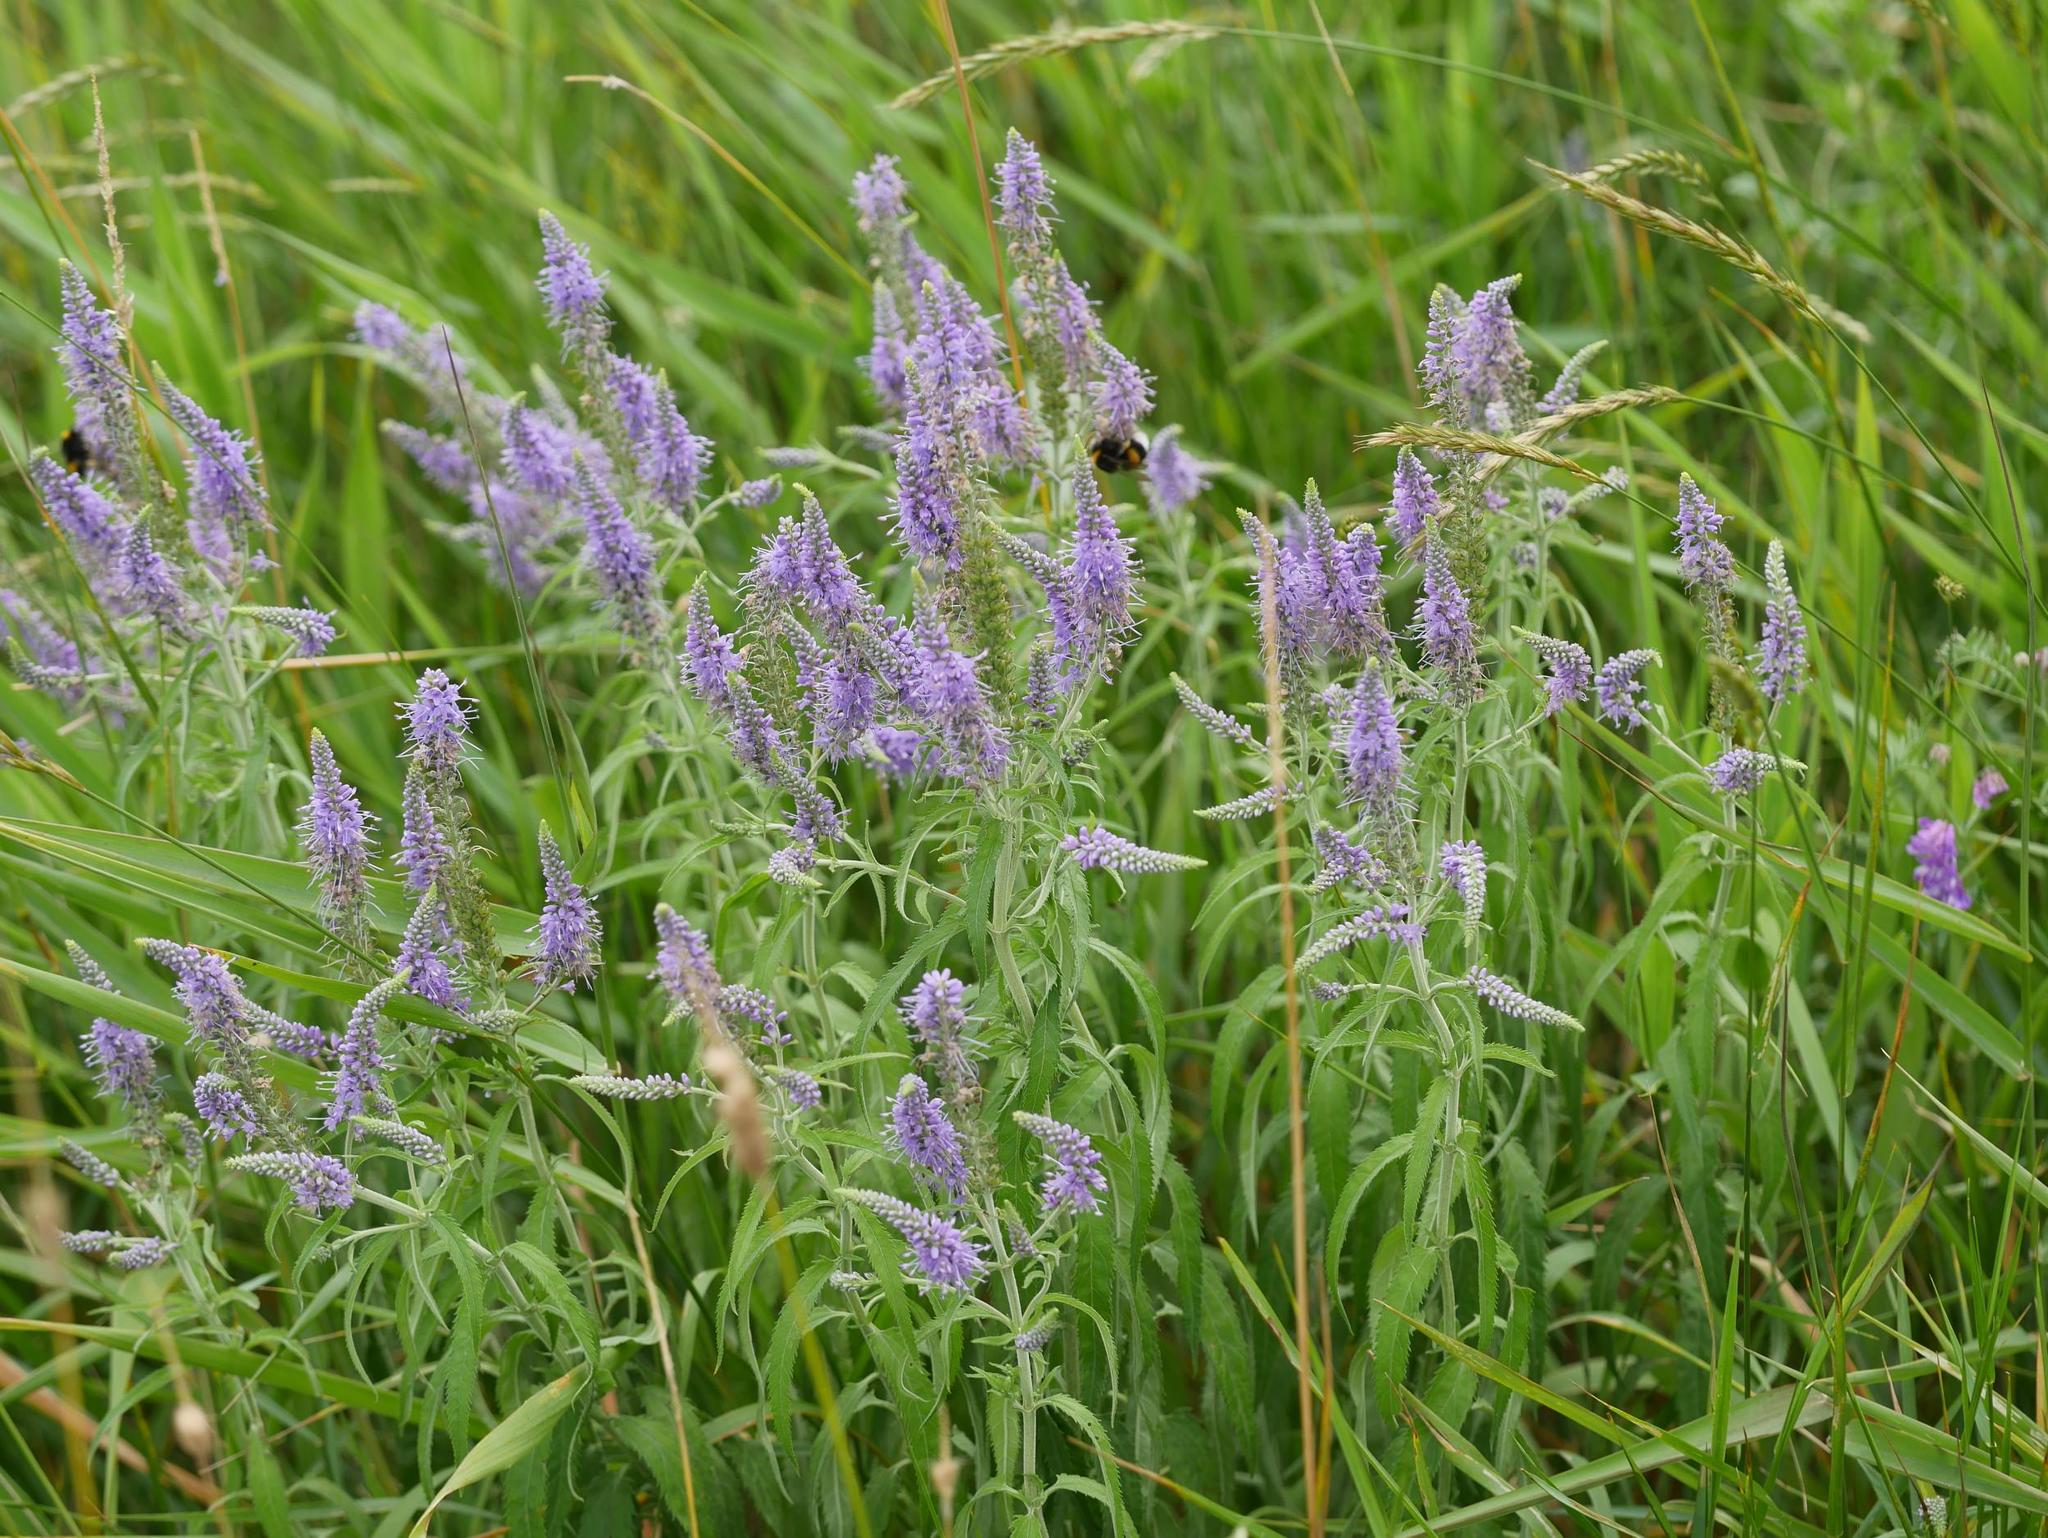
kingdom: Plantae
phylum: Tracheophyta
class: Magnoliopsida
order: Lamiales
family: Plantaginaceae
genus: Veronica
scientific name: Veronica longifolia
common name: Garden speedwell
